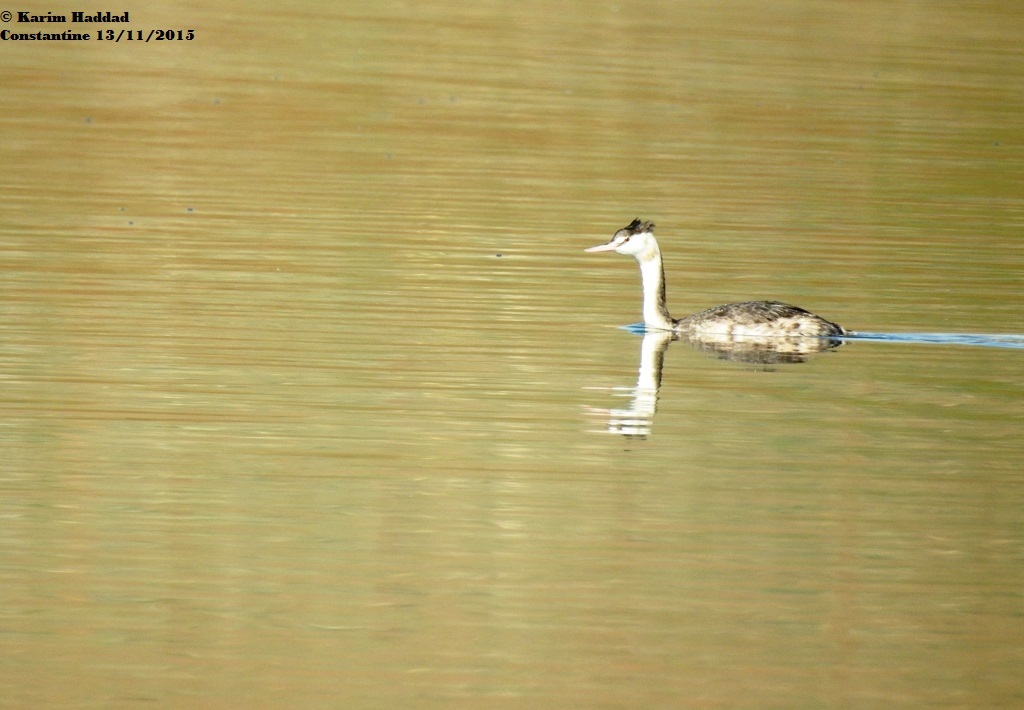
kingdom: Animalia
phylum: Chordata
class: Aves
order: Podicipediformes
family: Podicipedidae
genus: Podiceps
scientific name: Podiceps cristatus
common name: Great crested grebe
